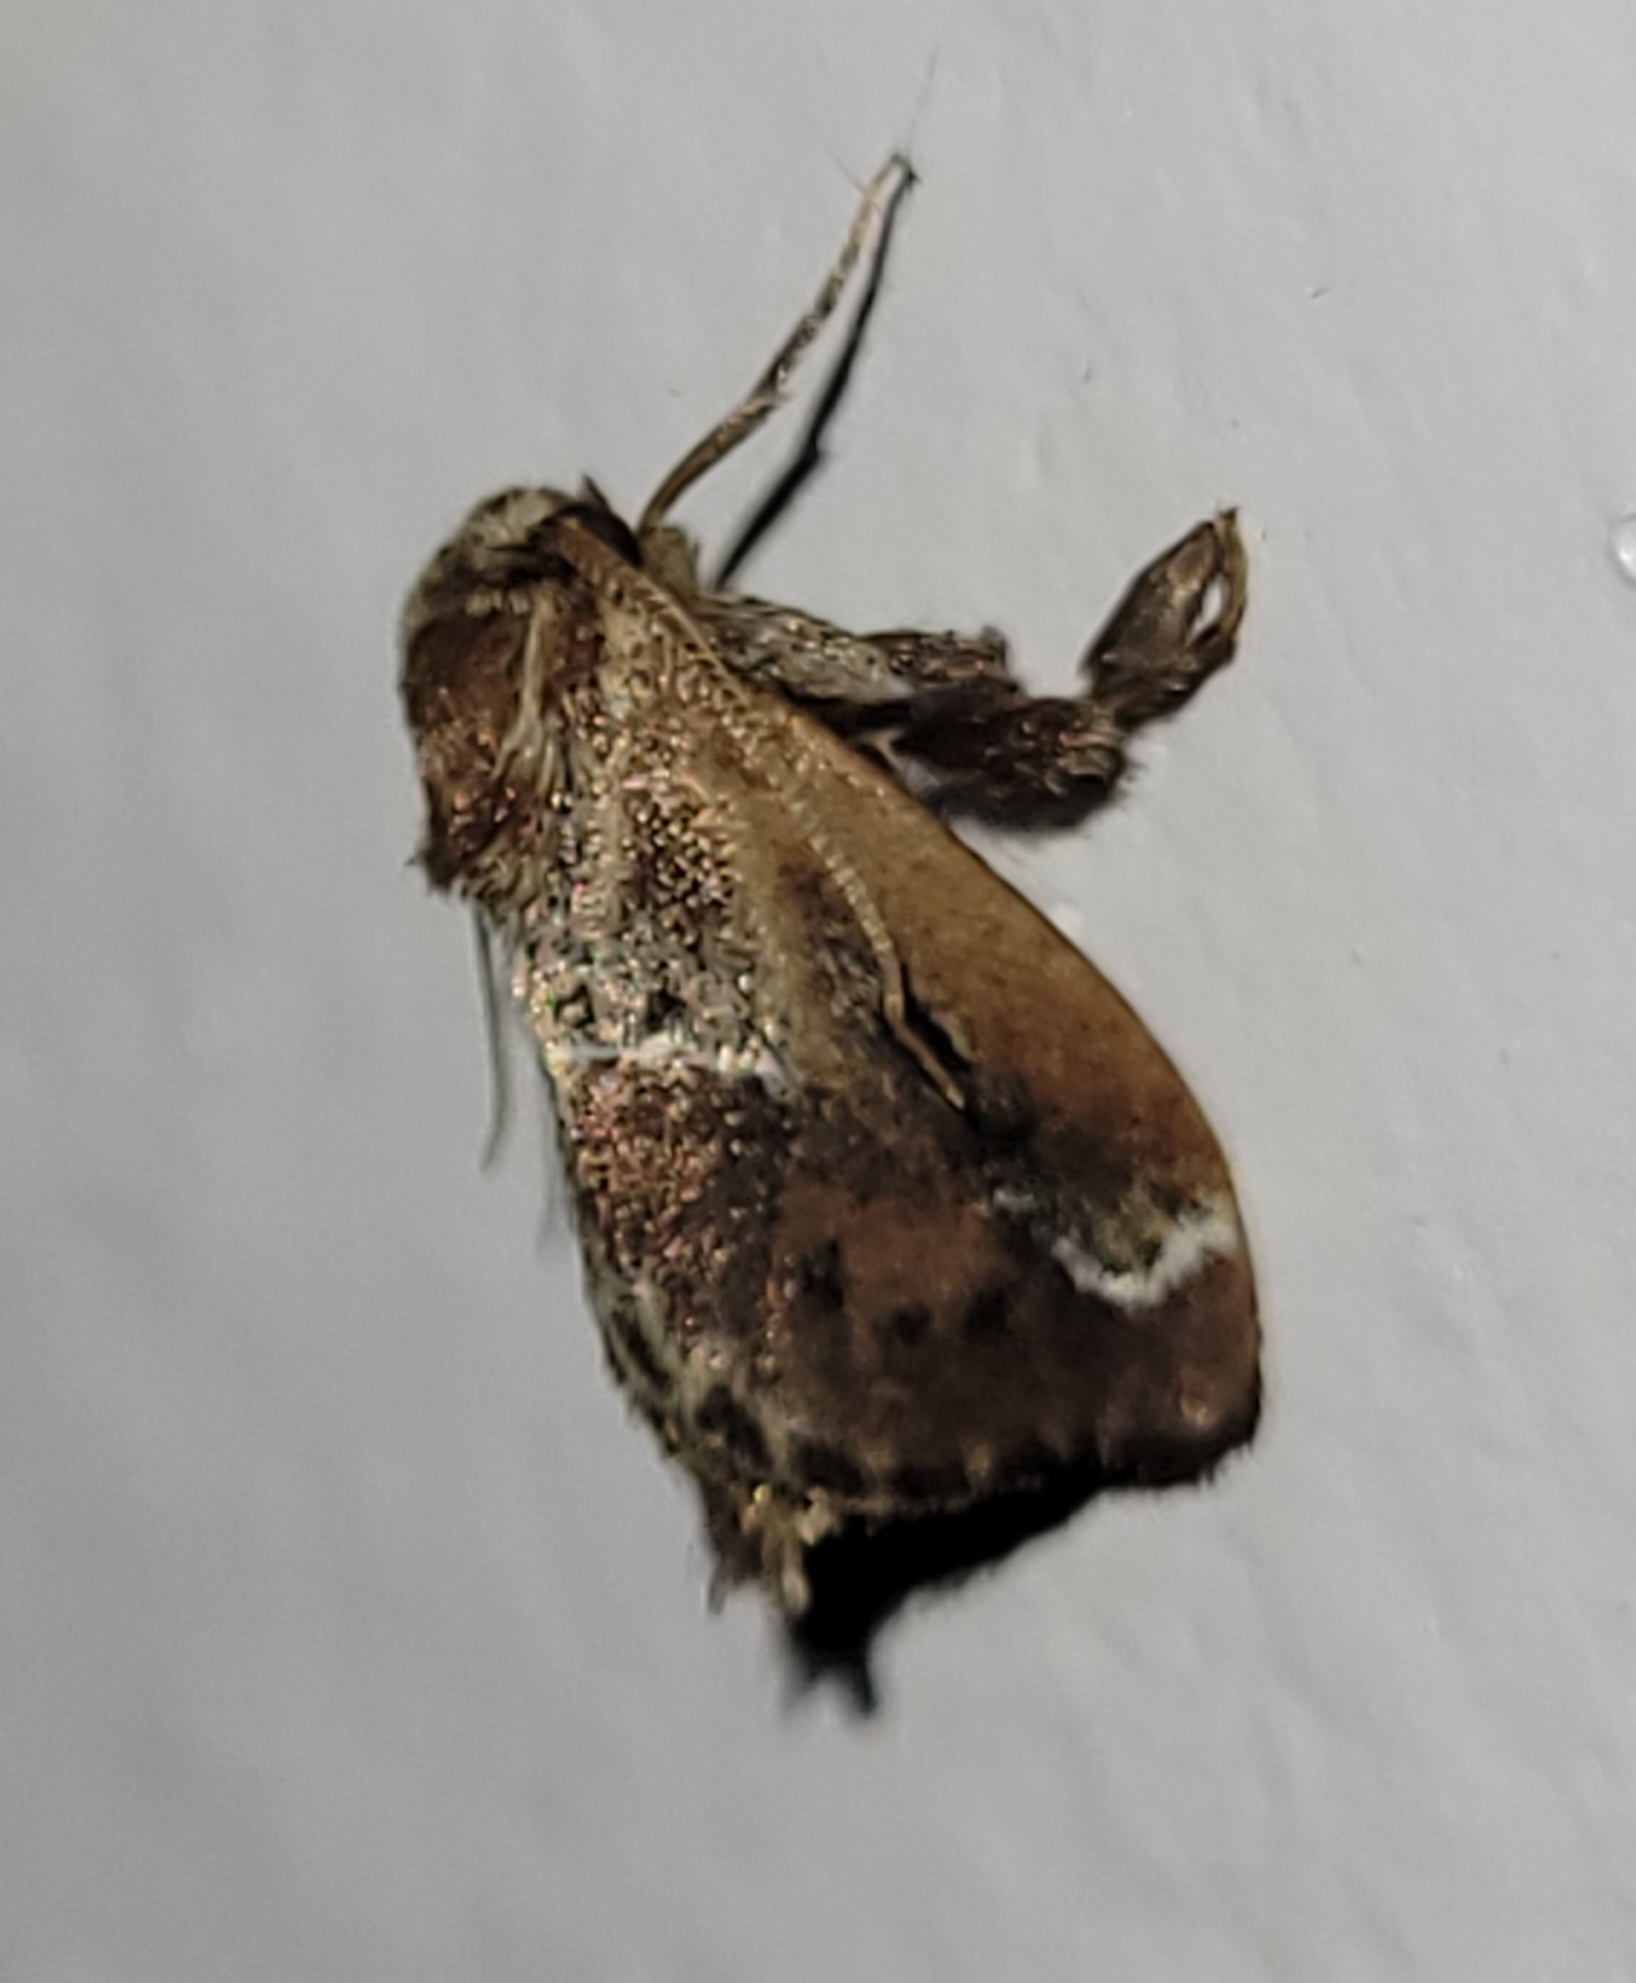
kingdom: Animalia
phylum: Arthropoda
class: Insecta
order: Lepidoptera
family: Limacodidae
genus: Adoneta
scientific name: Adoneta spinuloides
